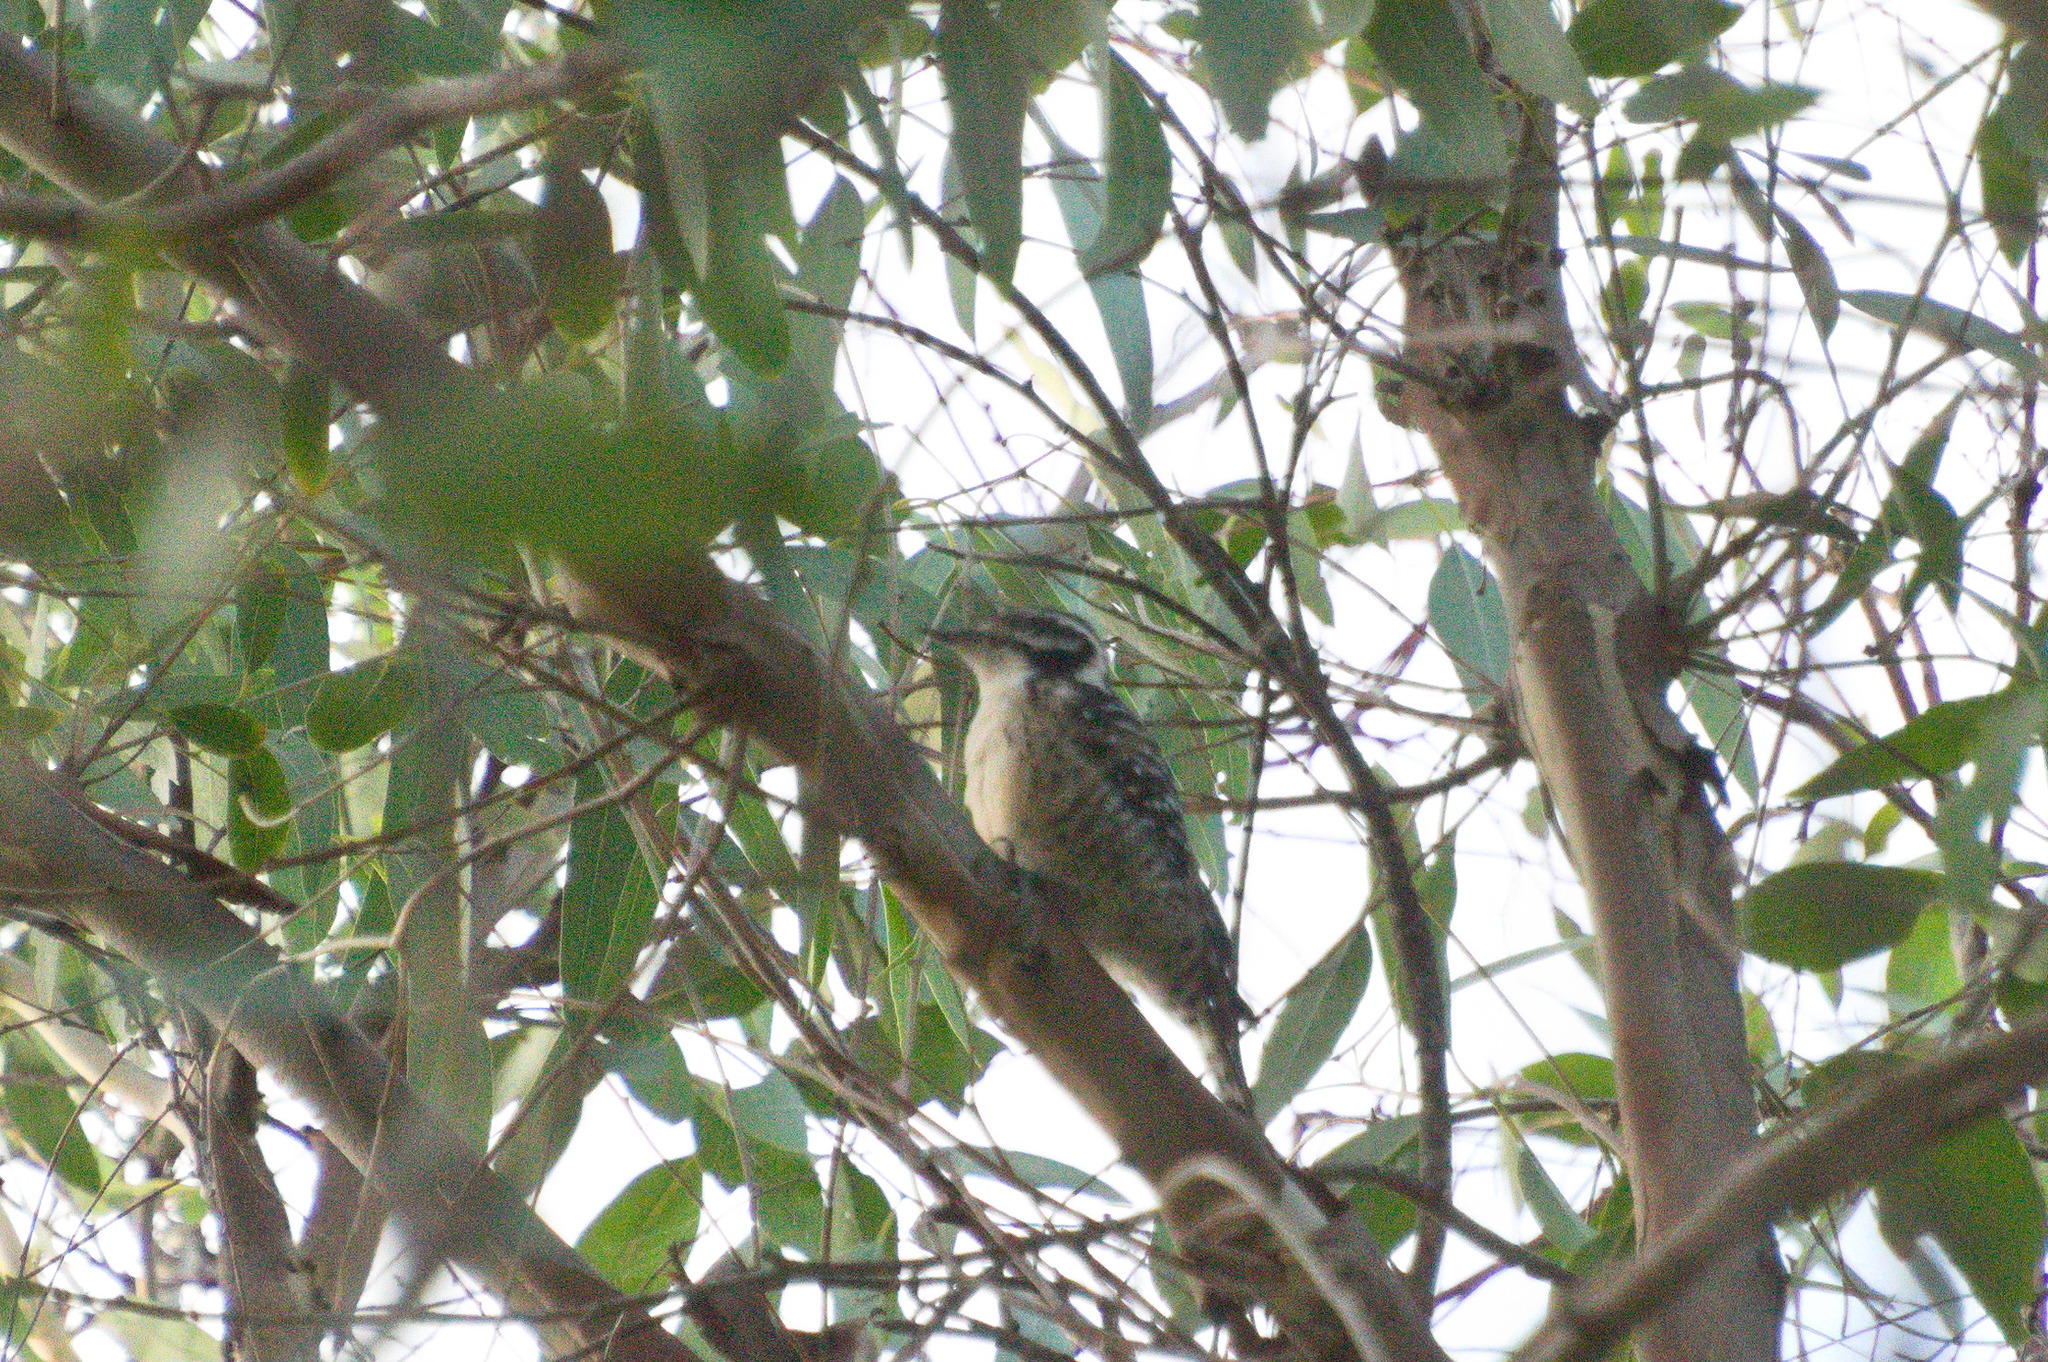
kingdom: Animalia
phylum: Chordata
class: Aves
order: Piciformes
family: Picidae
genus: Dryobates
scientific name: Dryobates nuttallii
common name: Nuttall's woodpecker
